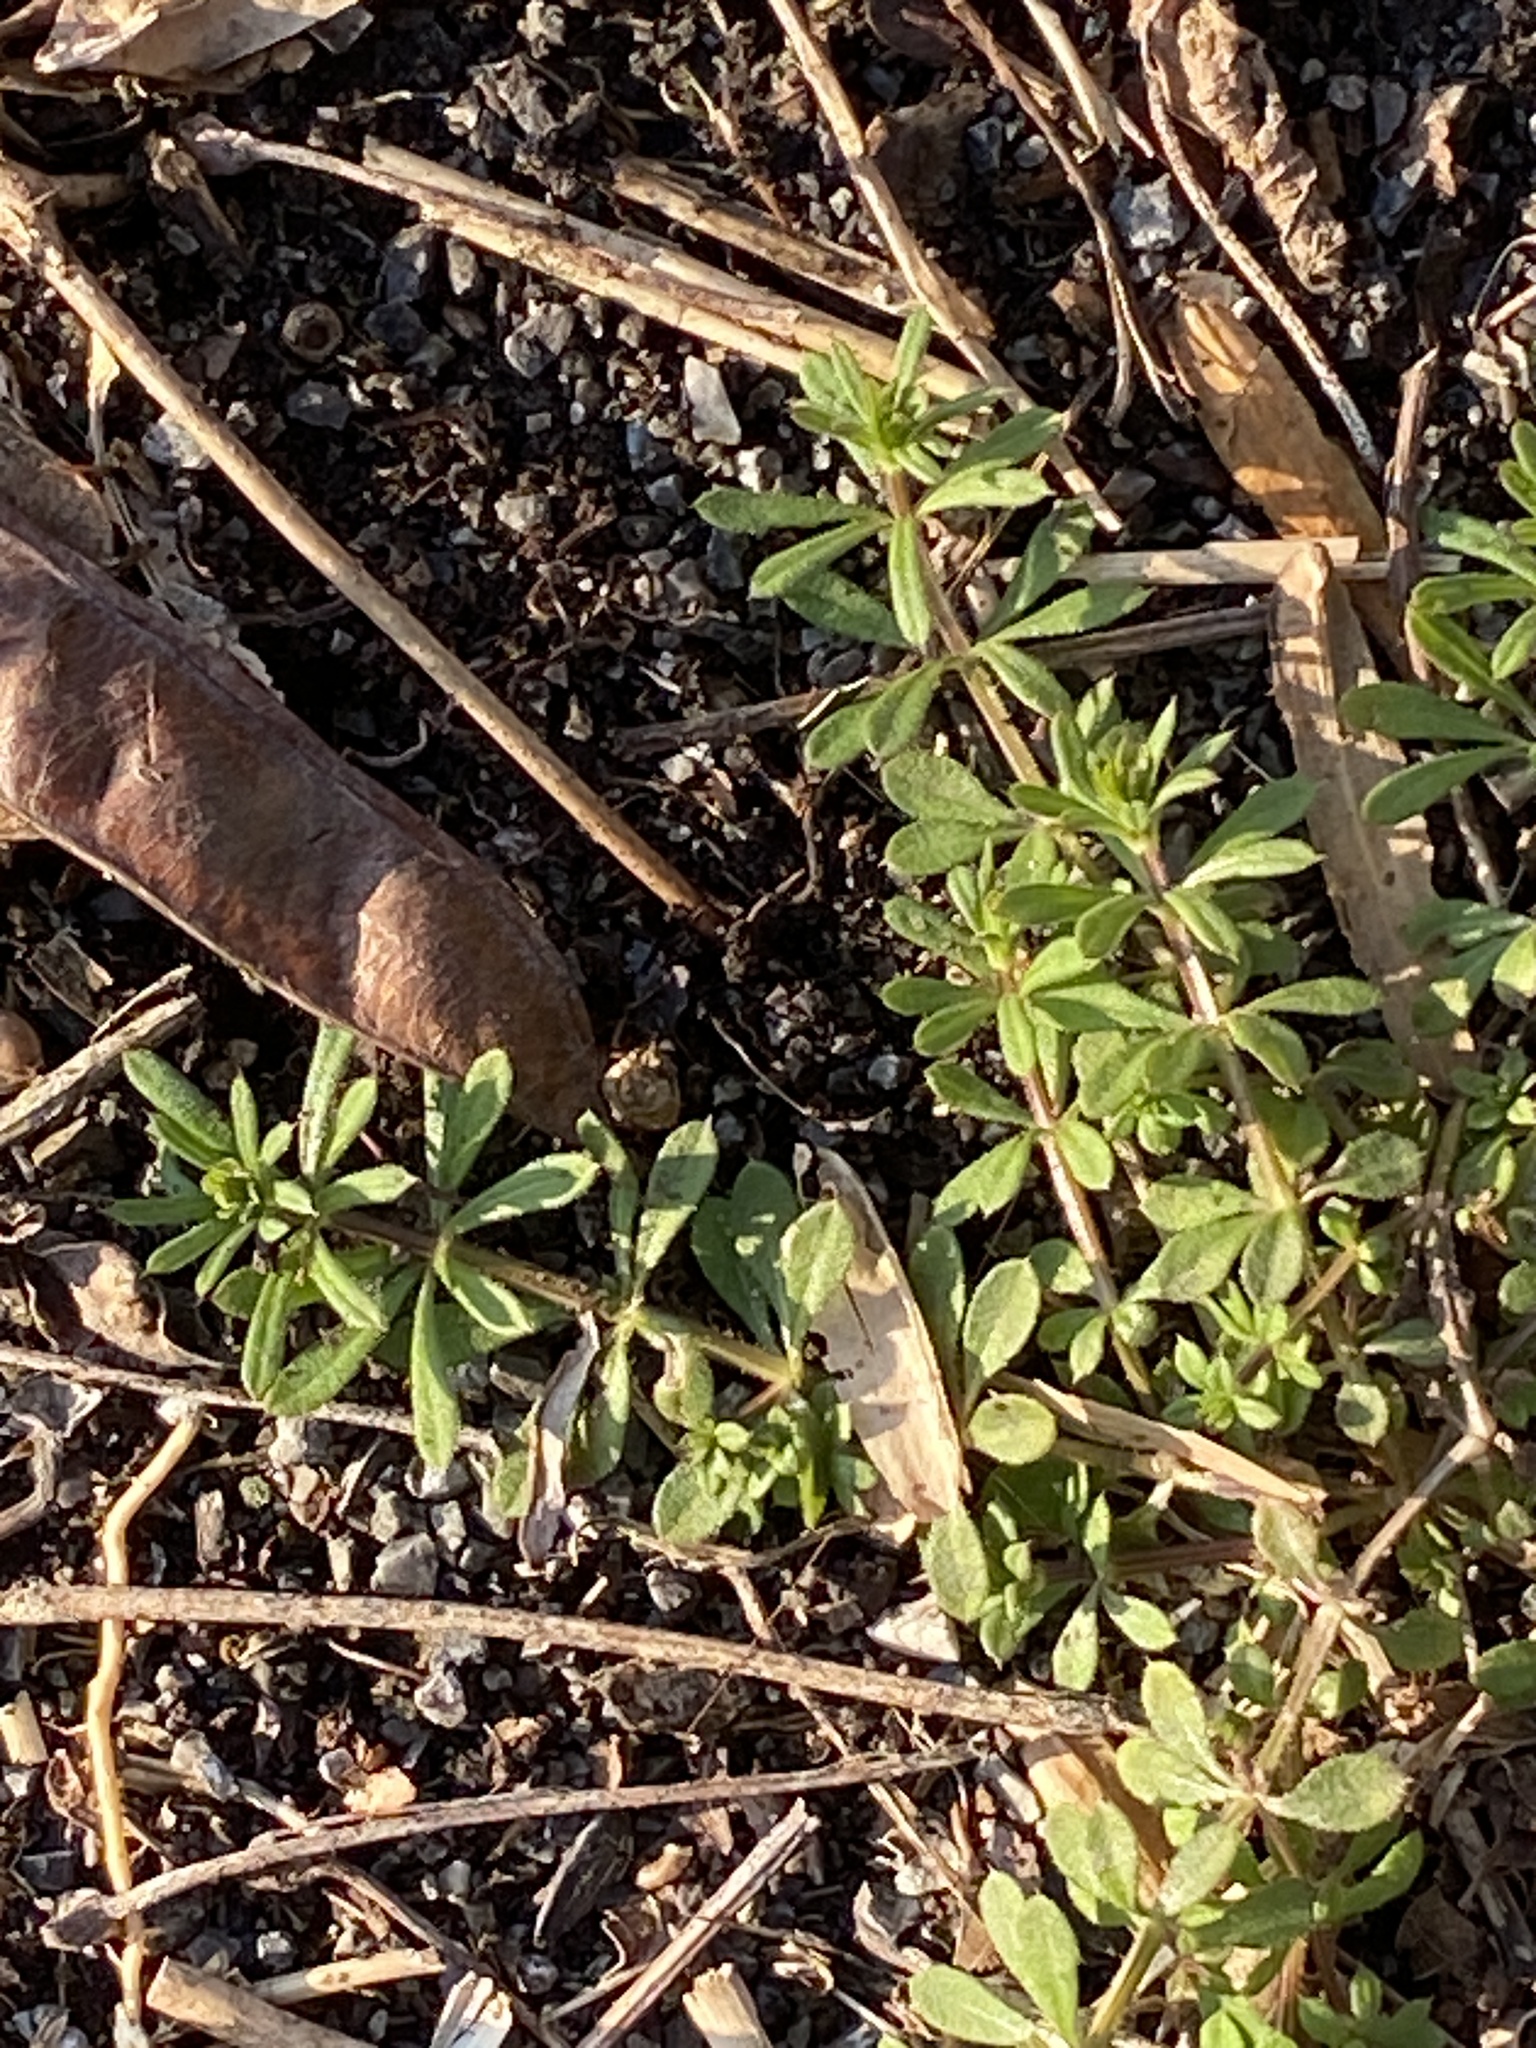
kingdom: Plantae
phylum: Tracheophyta
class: Magnoliopsida
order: Gentianales
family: Rubiaceae
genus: Galium
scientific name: Galium aparine
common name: Cleavers
